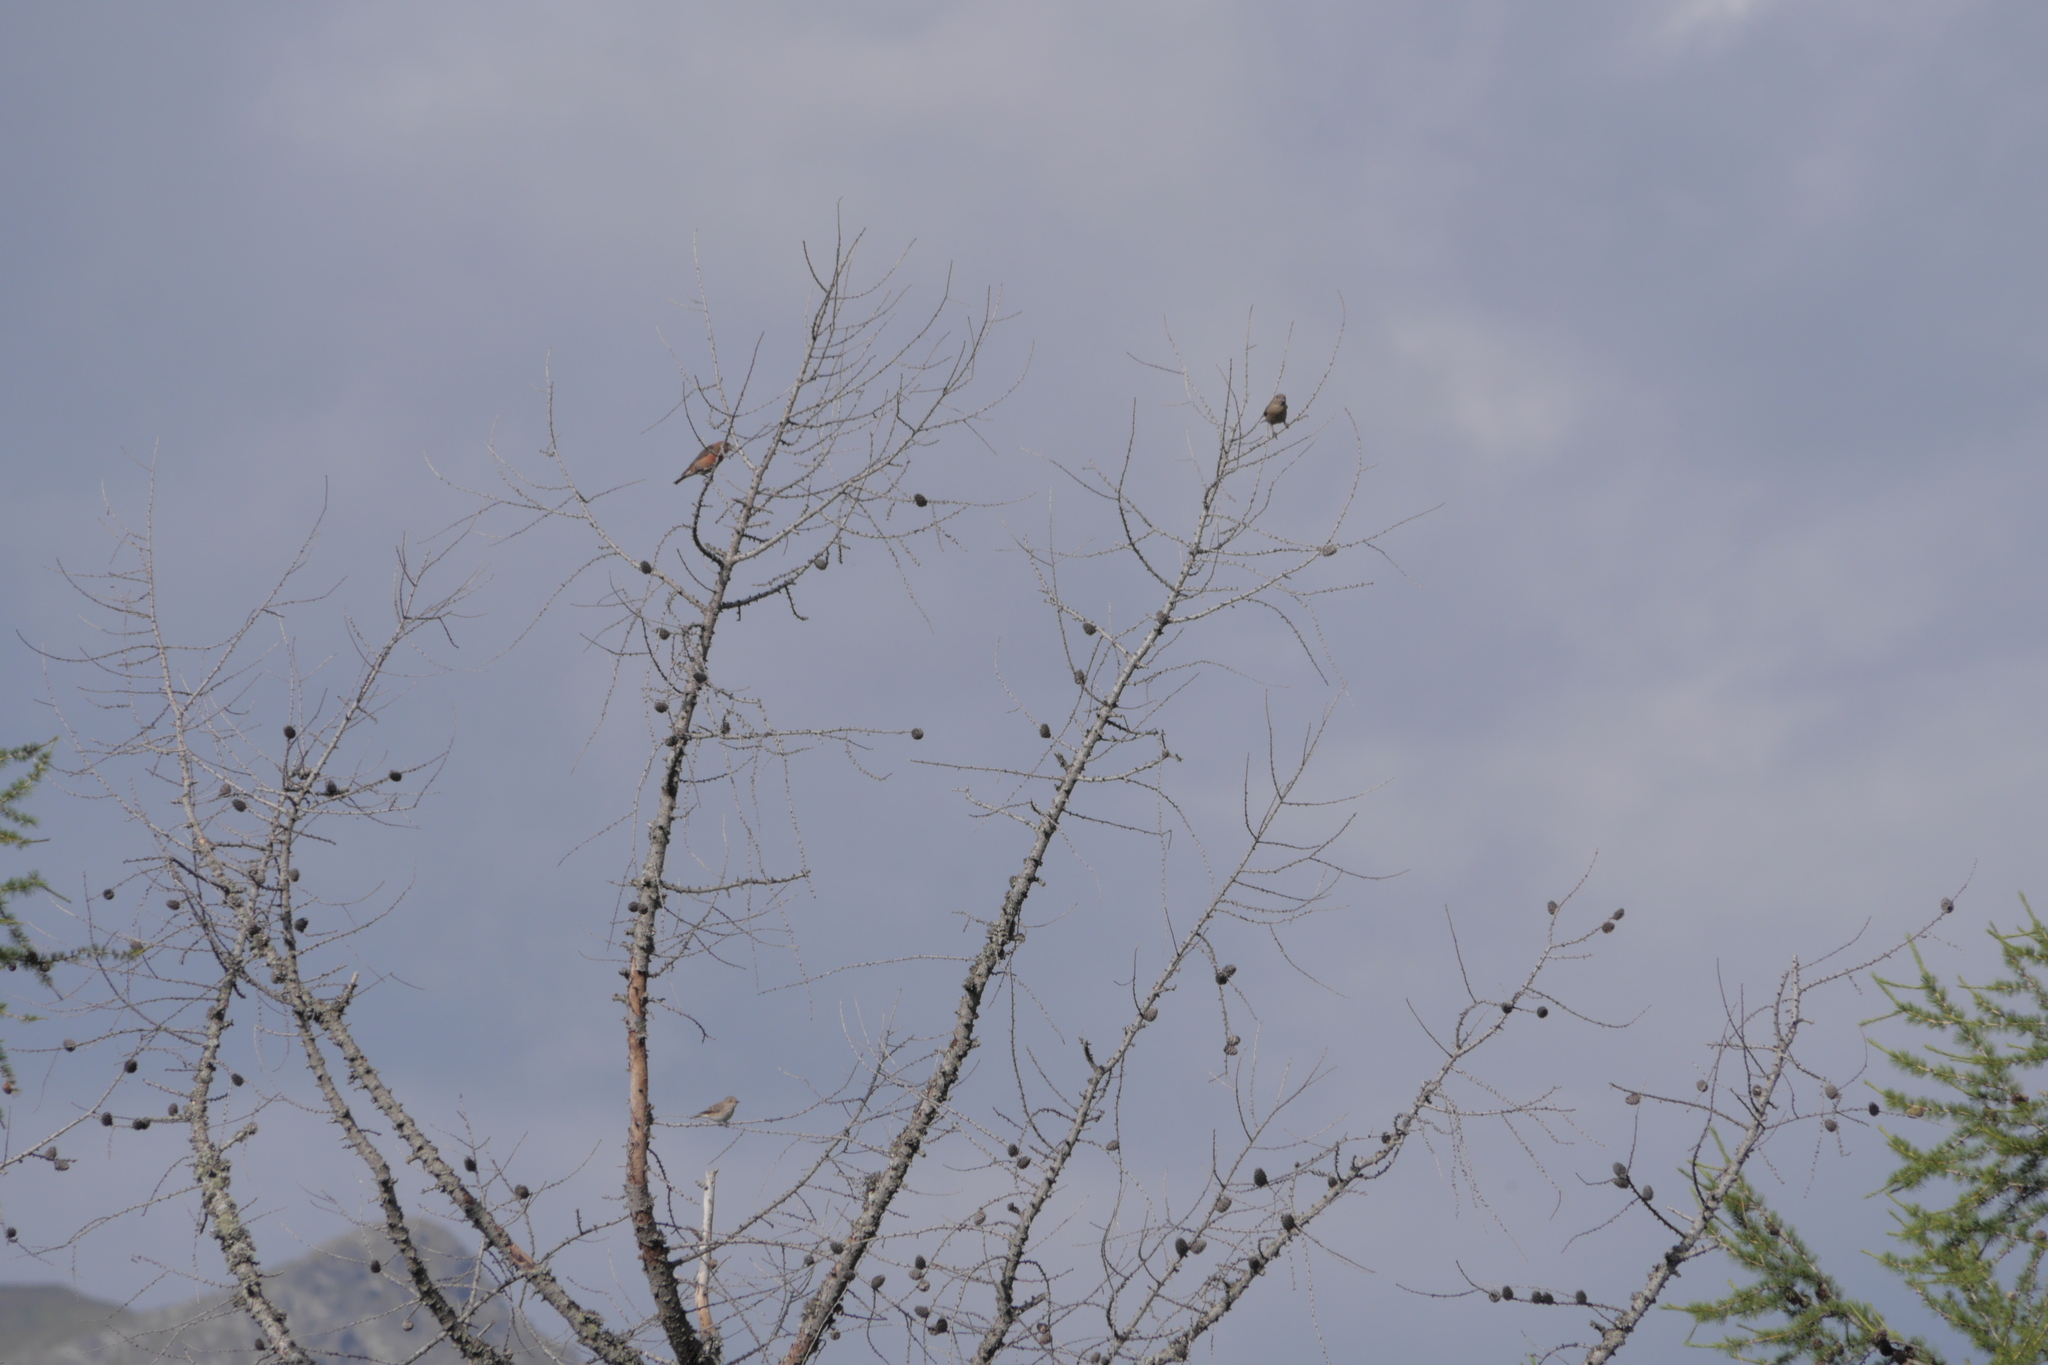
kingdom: Animalia
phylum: Chordata
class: Aves
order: Passeriformes
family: Fringillidae
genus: Loxia
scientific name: Loxia curvirostra
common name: Red crossbill
